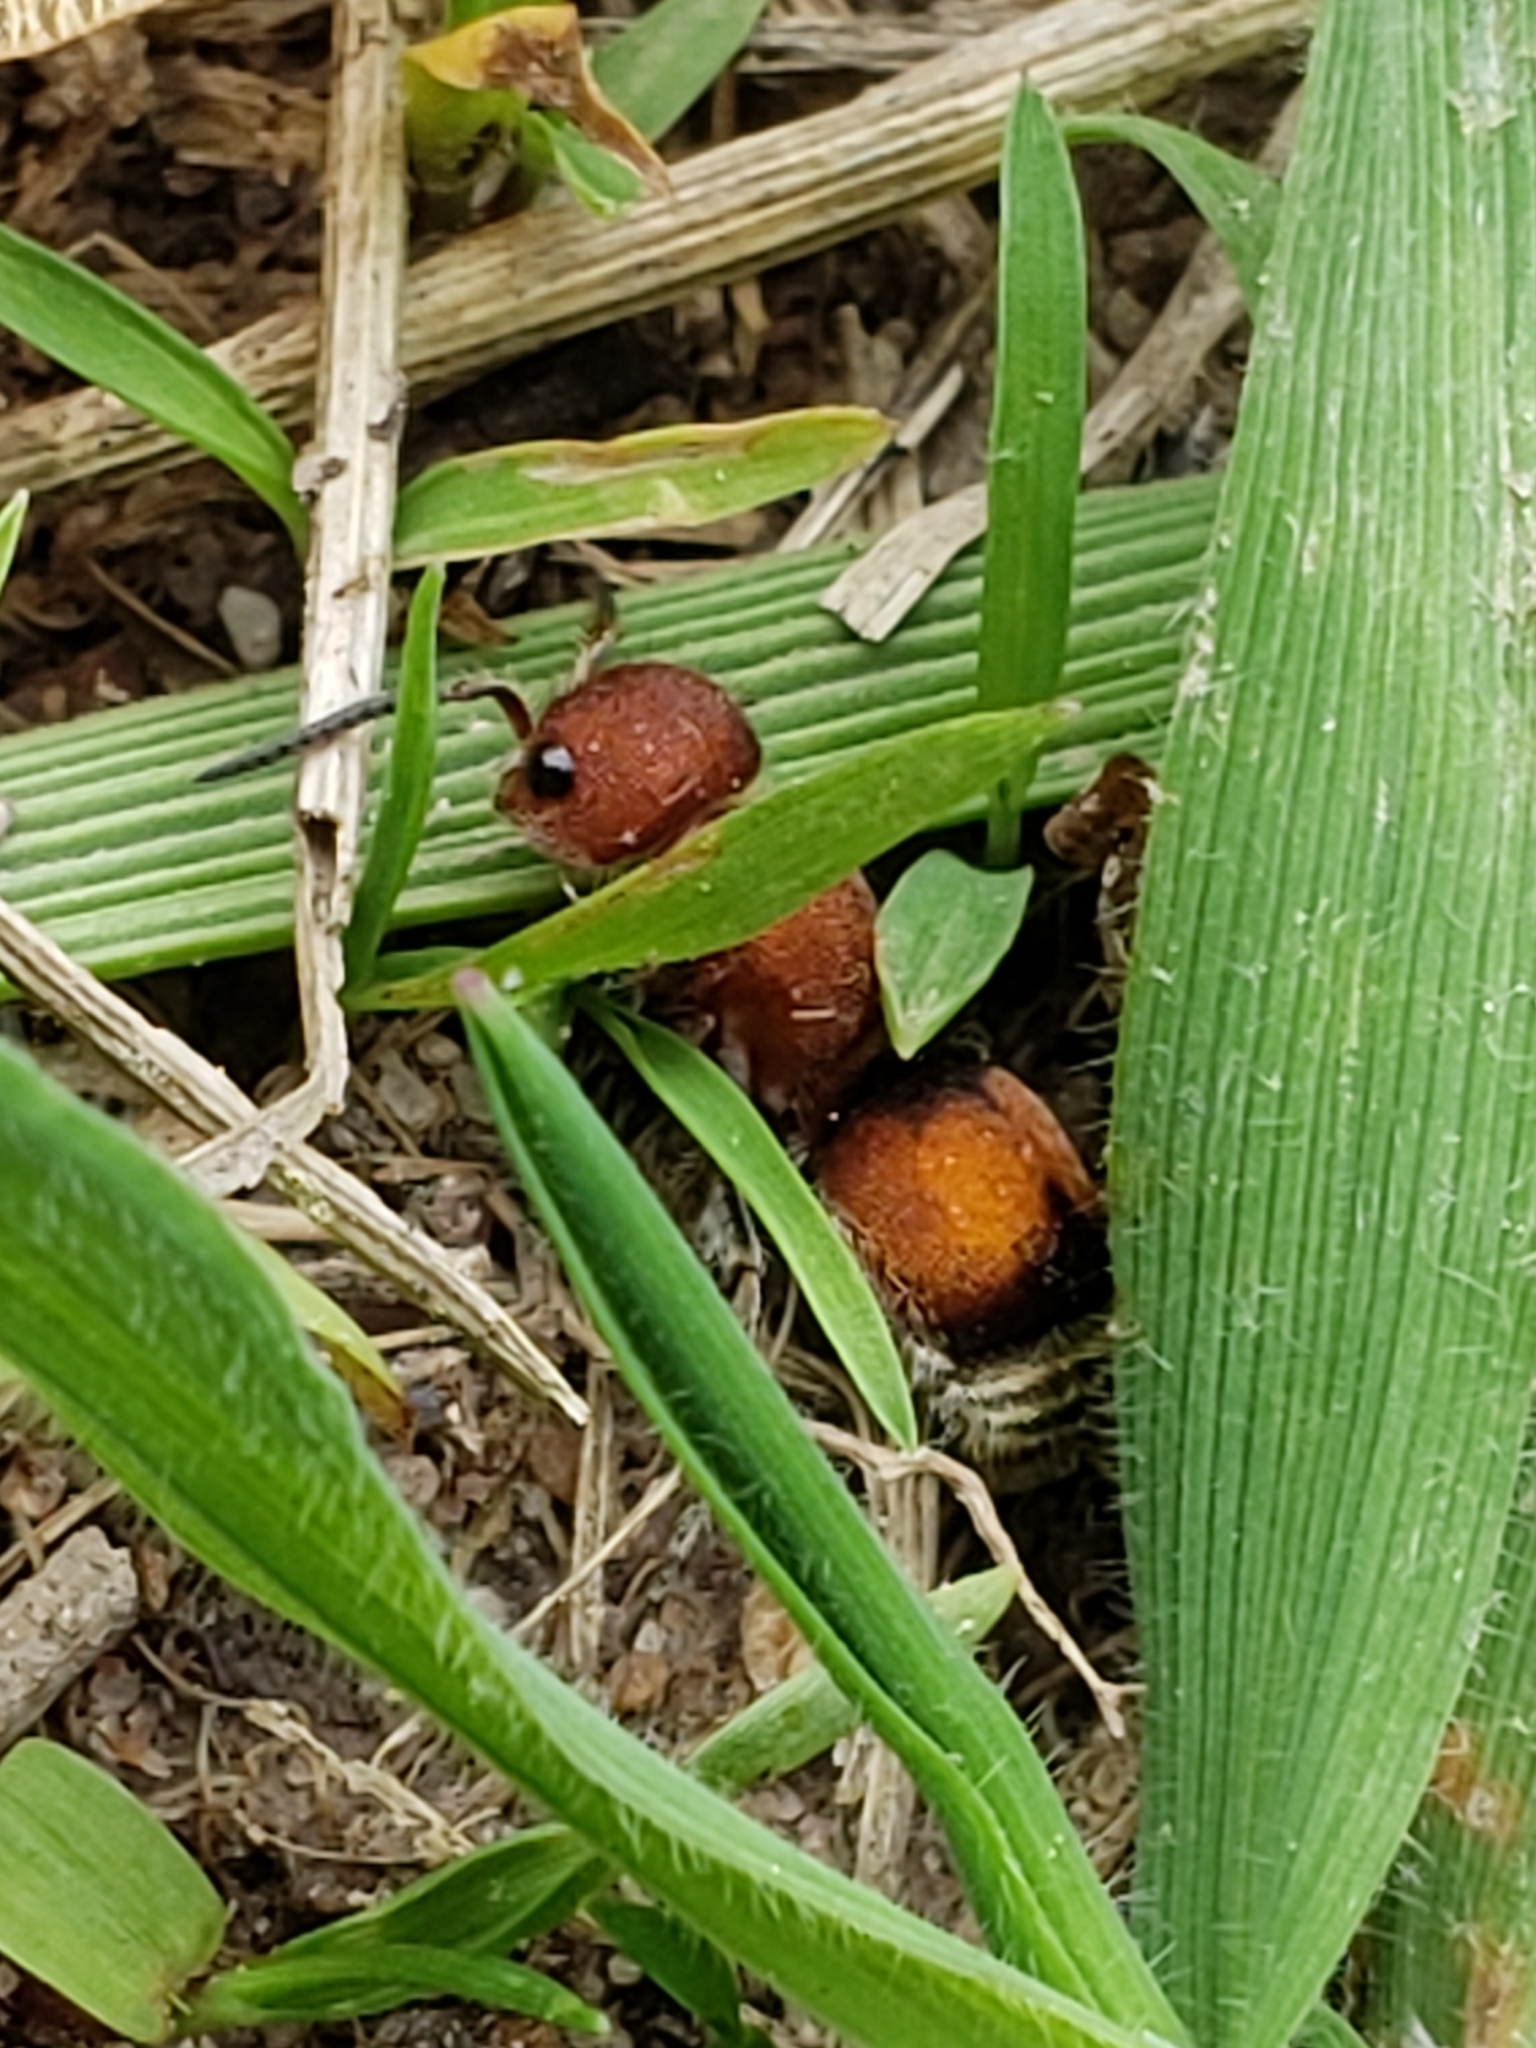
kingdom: Animalia
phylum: Arthropoda
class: Insecta
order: Hymenoptera
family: Mutillidae
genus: Pseudomethoca
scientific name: Pseudomethoca
